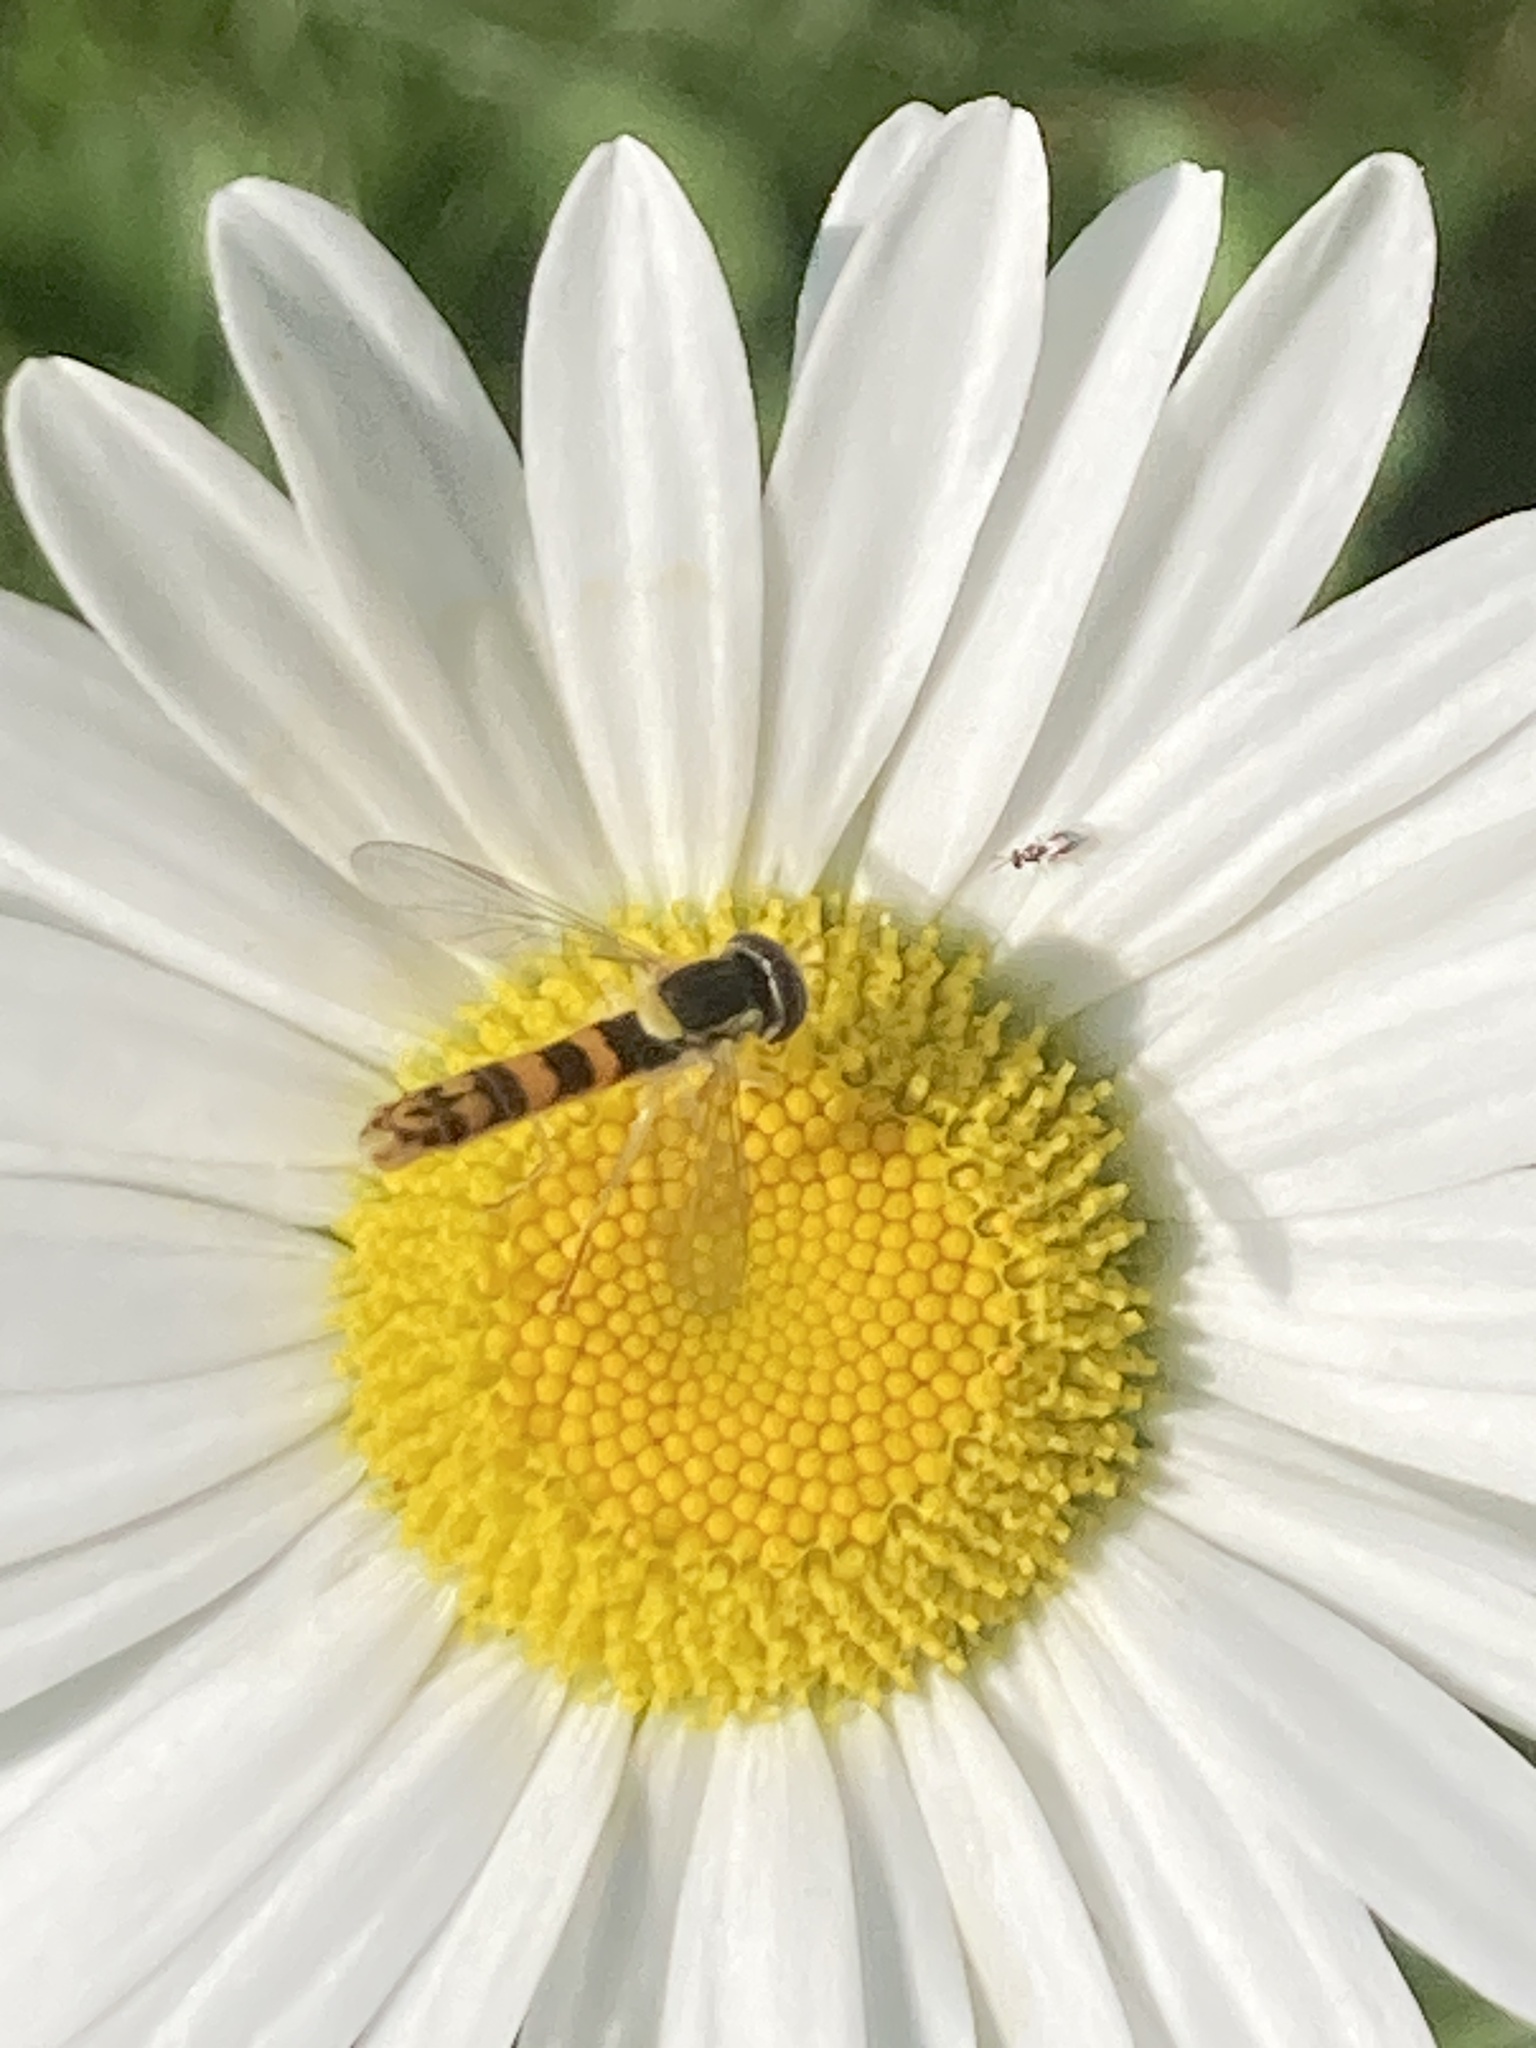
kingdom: Animalia
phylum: Arthropoda
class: Insecta
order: Diptera
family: Syrphidae
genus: Sphaerophoria
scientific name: Sphaerophoria scripta
